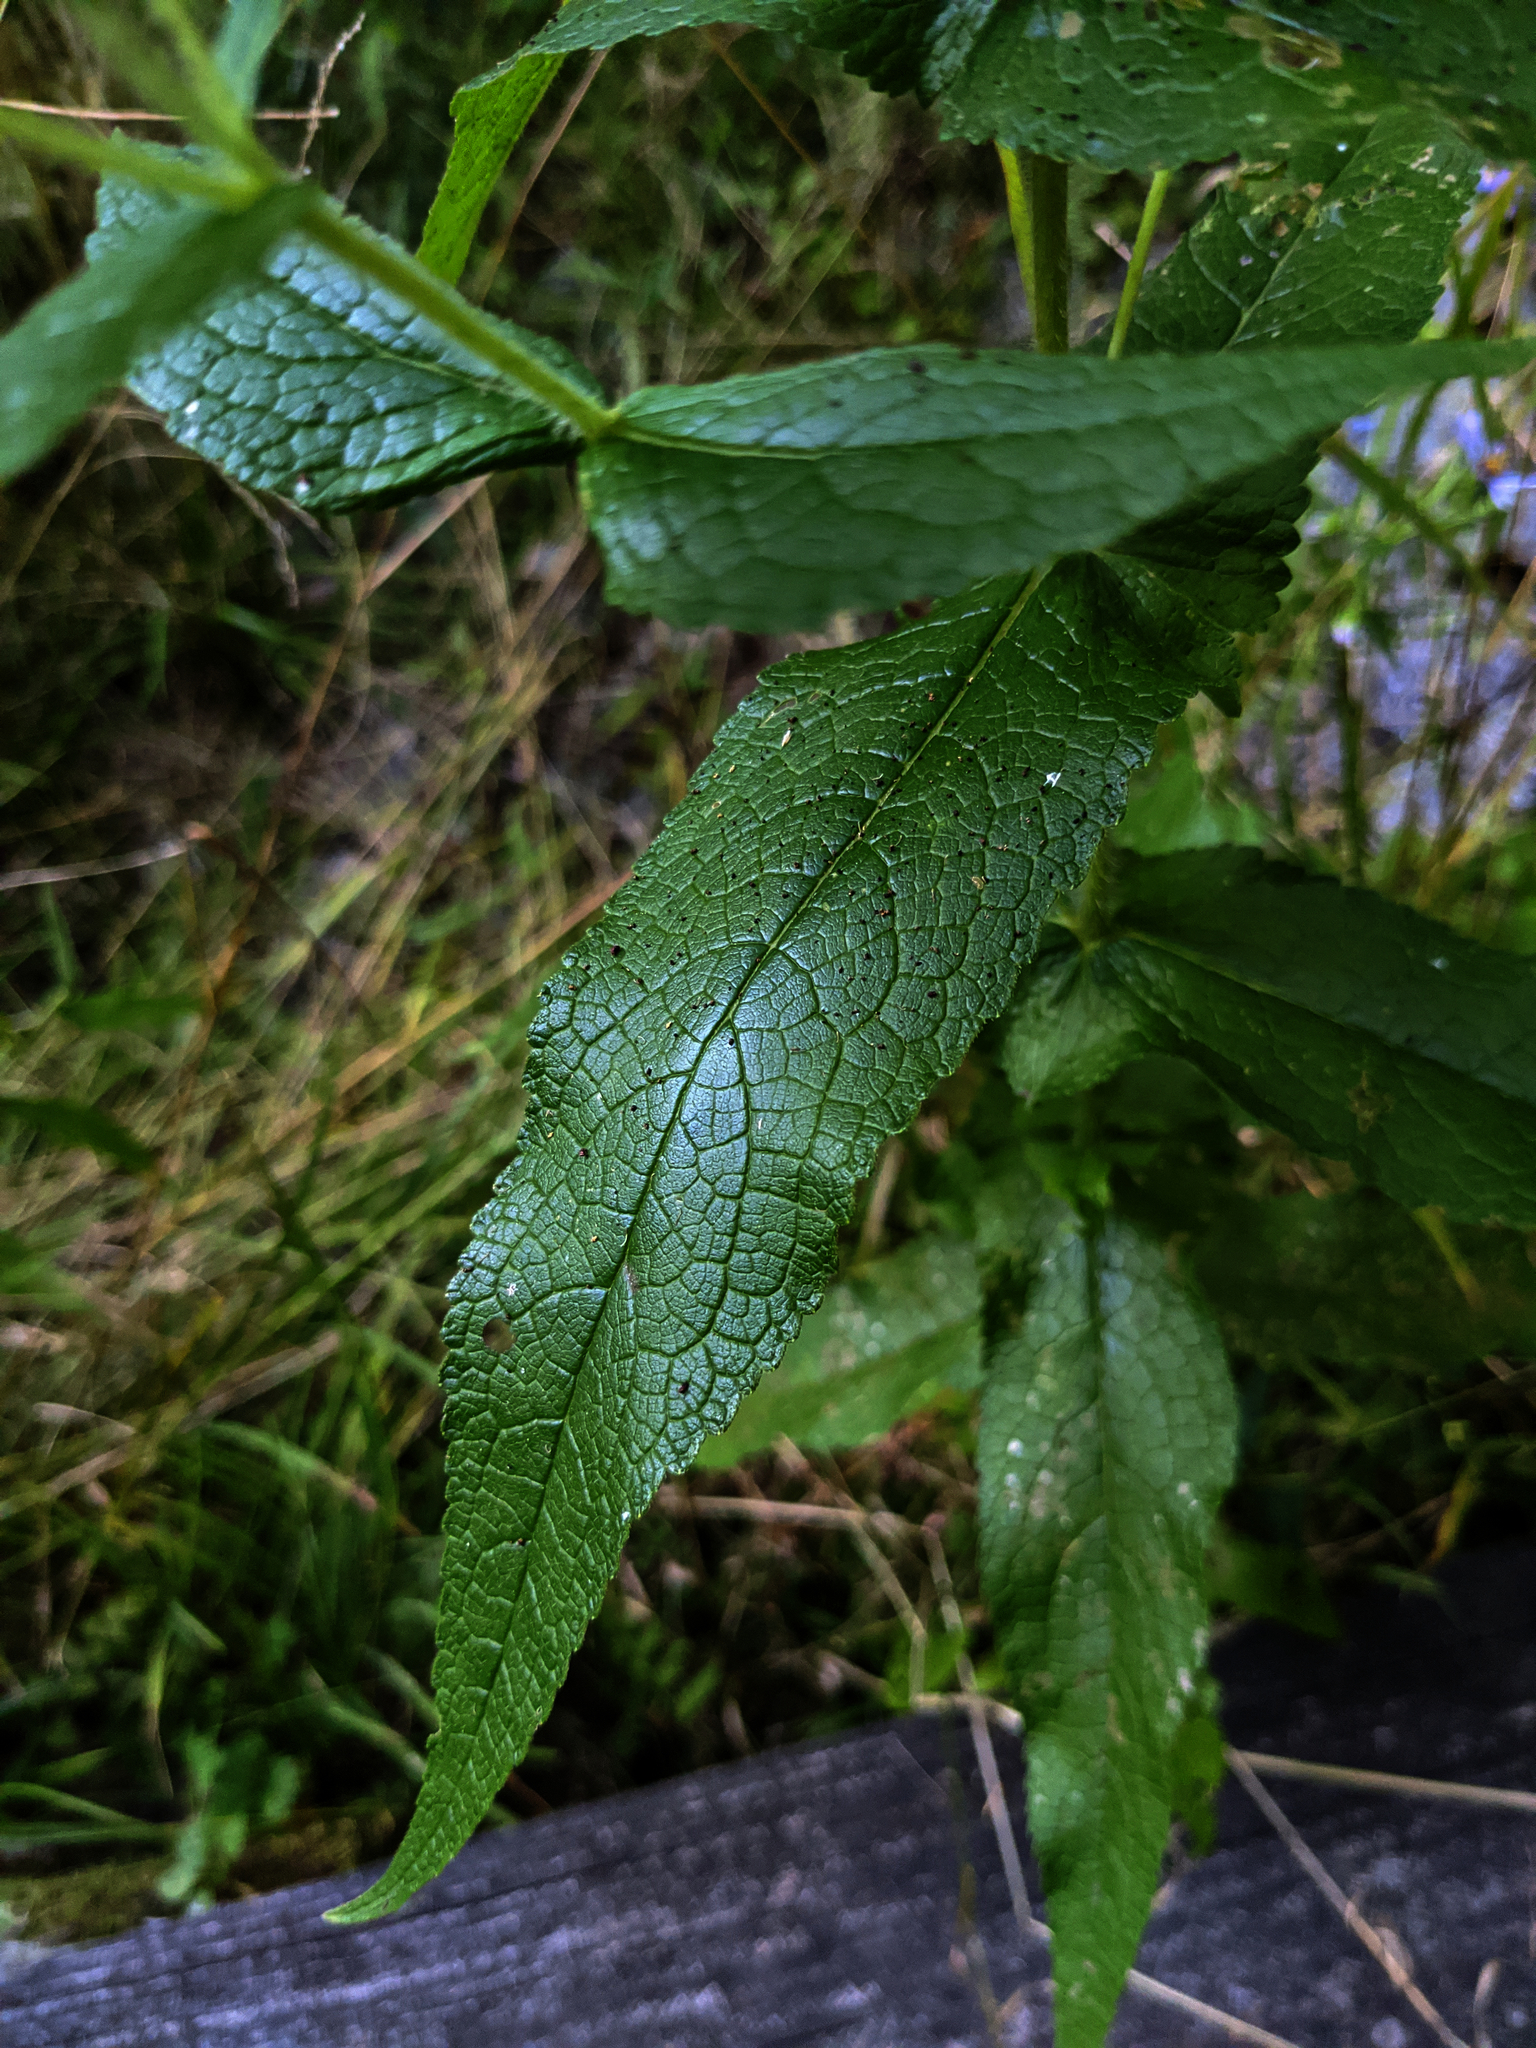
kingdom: Plantae
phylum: Tracheophyta
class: Magnoliopsida
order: Asterales
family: Asteraceae
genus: Eupatorium
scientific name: Eupatorium perfoliatum
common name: Boneset
